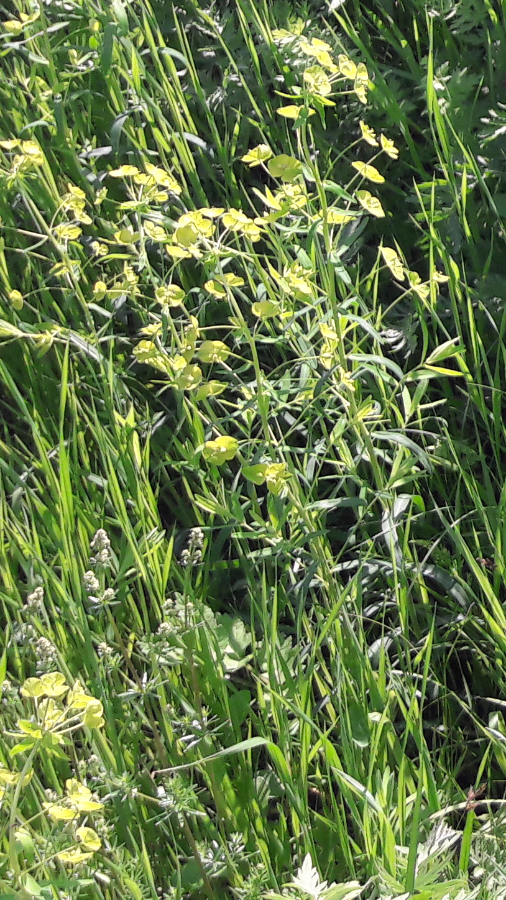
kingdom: Plantae
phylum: Tracheophyta
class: Magnoliopsida
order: Malpighiales
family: Euphorbiaceae
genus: Euphorbia
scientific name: Euphorbia virgata
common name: Leafy spurge
